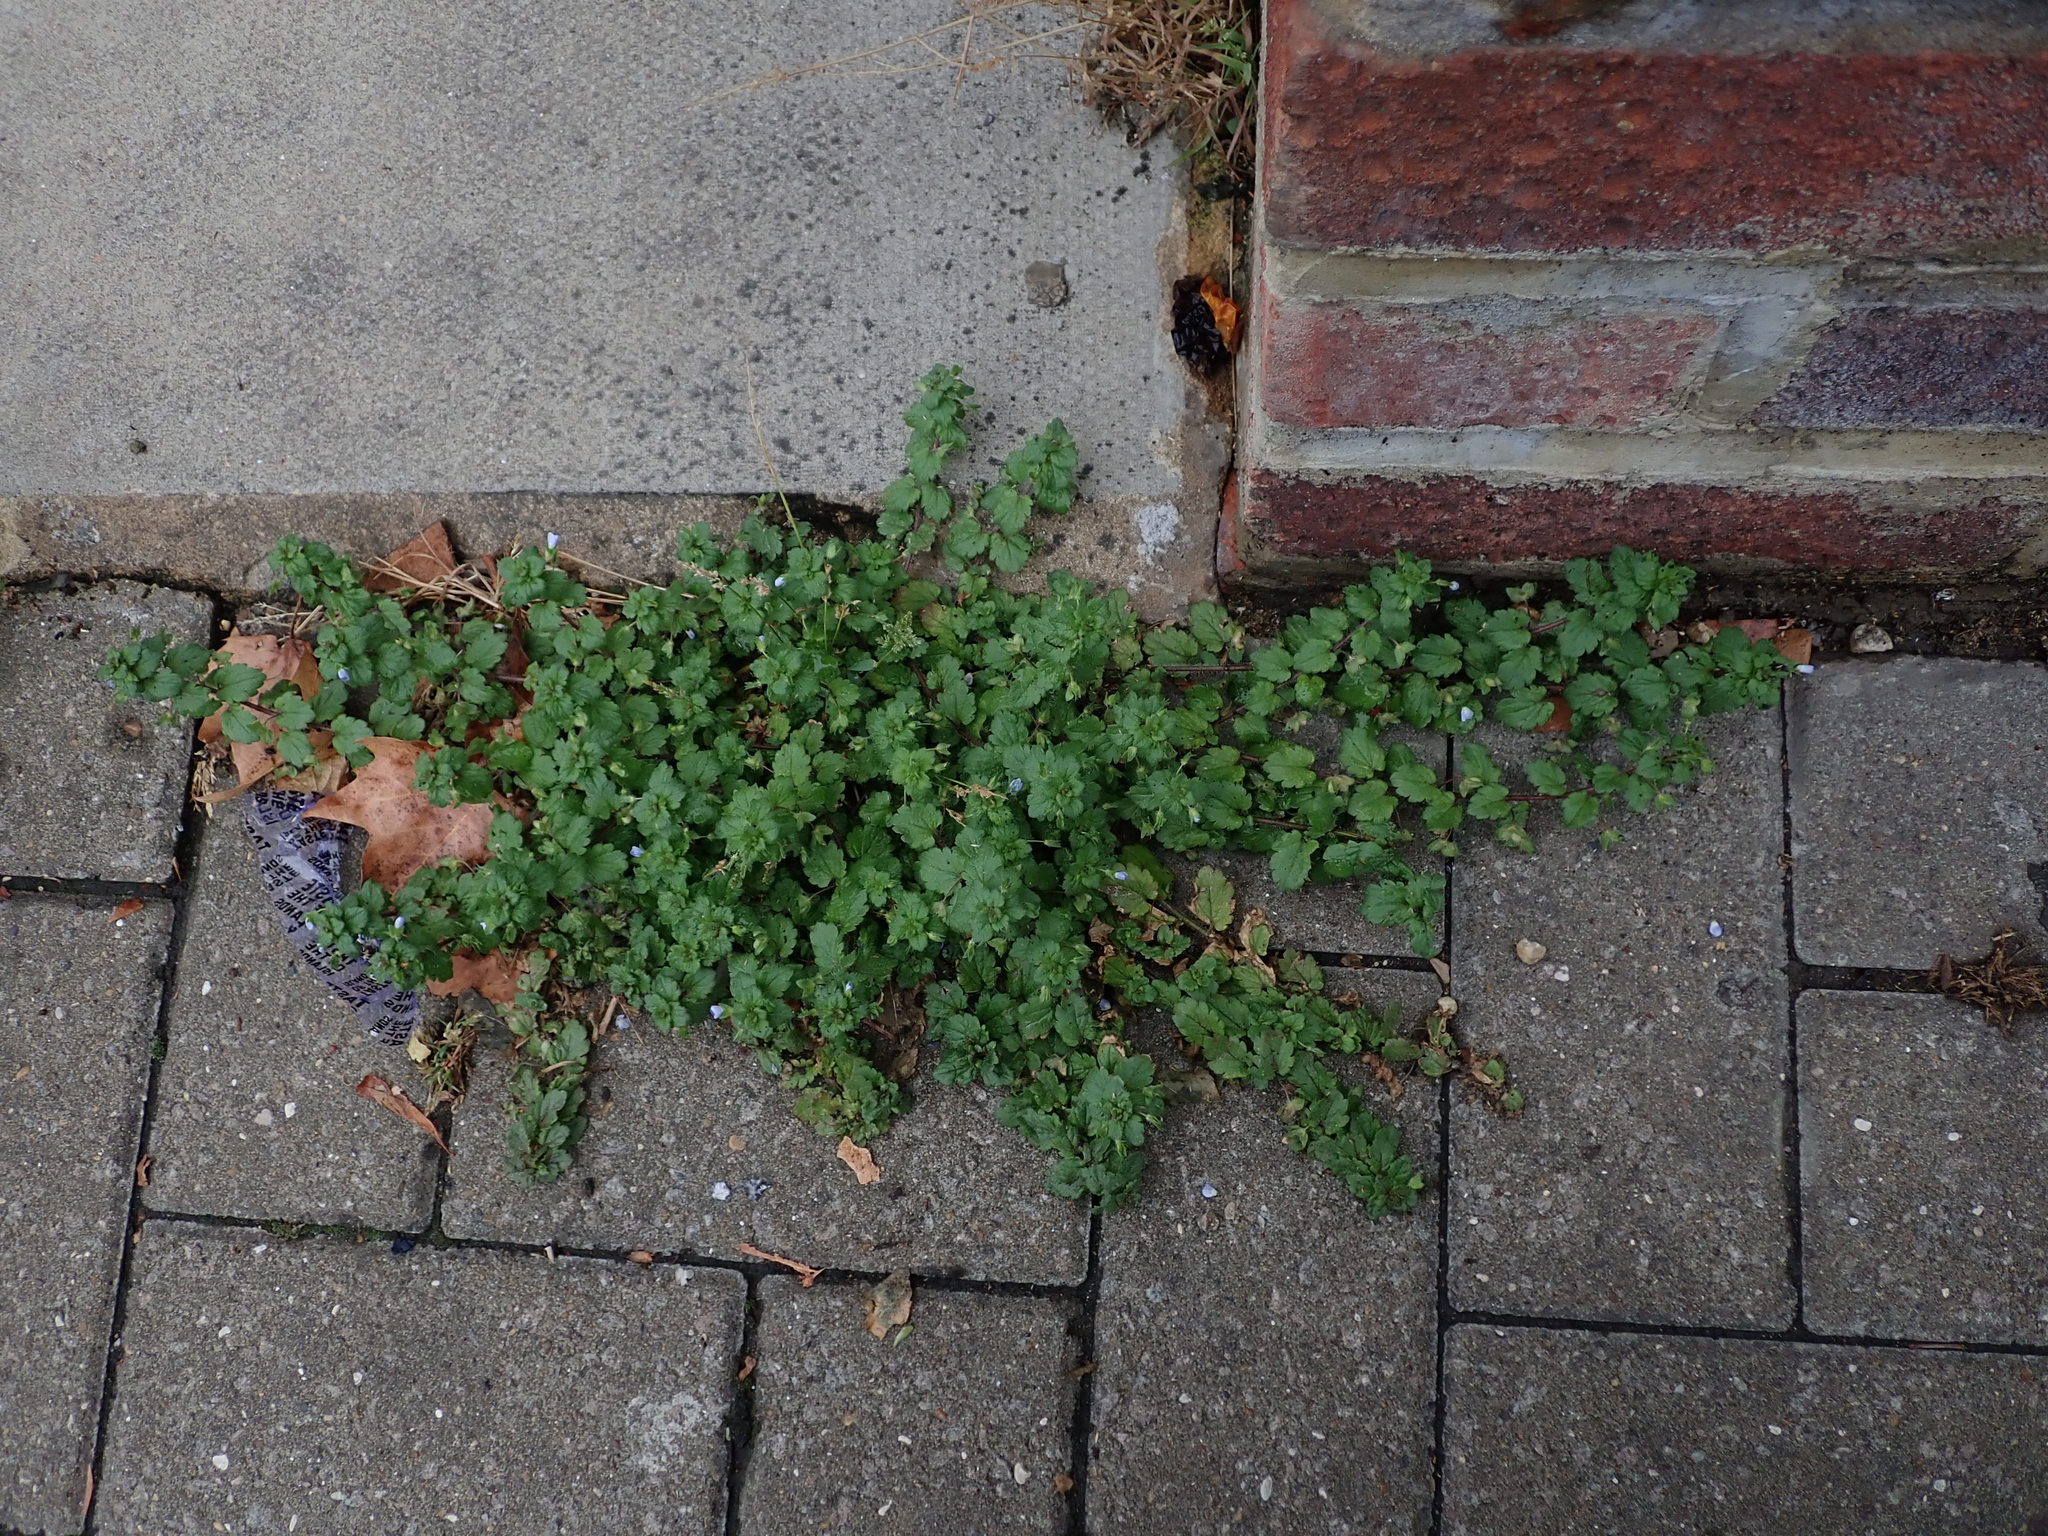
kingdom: Plantae
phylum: Tracheophyta
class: Magnoliopsida
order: Lamiales
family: Plantaginaceae
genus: Veronica
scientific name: Veronica persica
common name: Common field-speedwell
